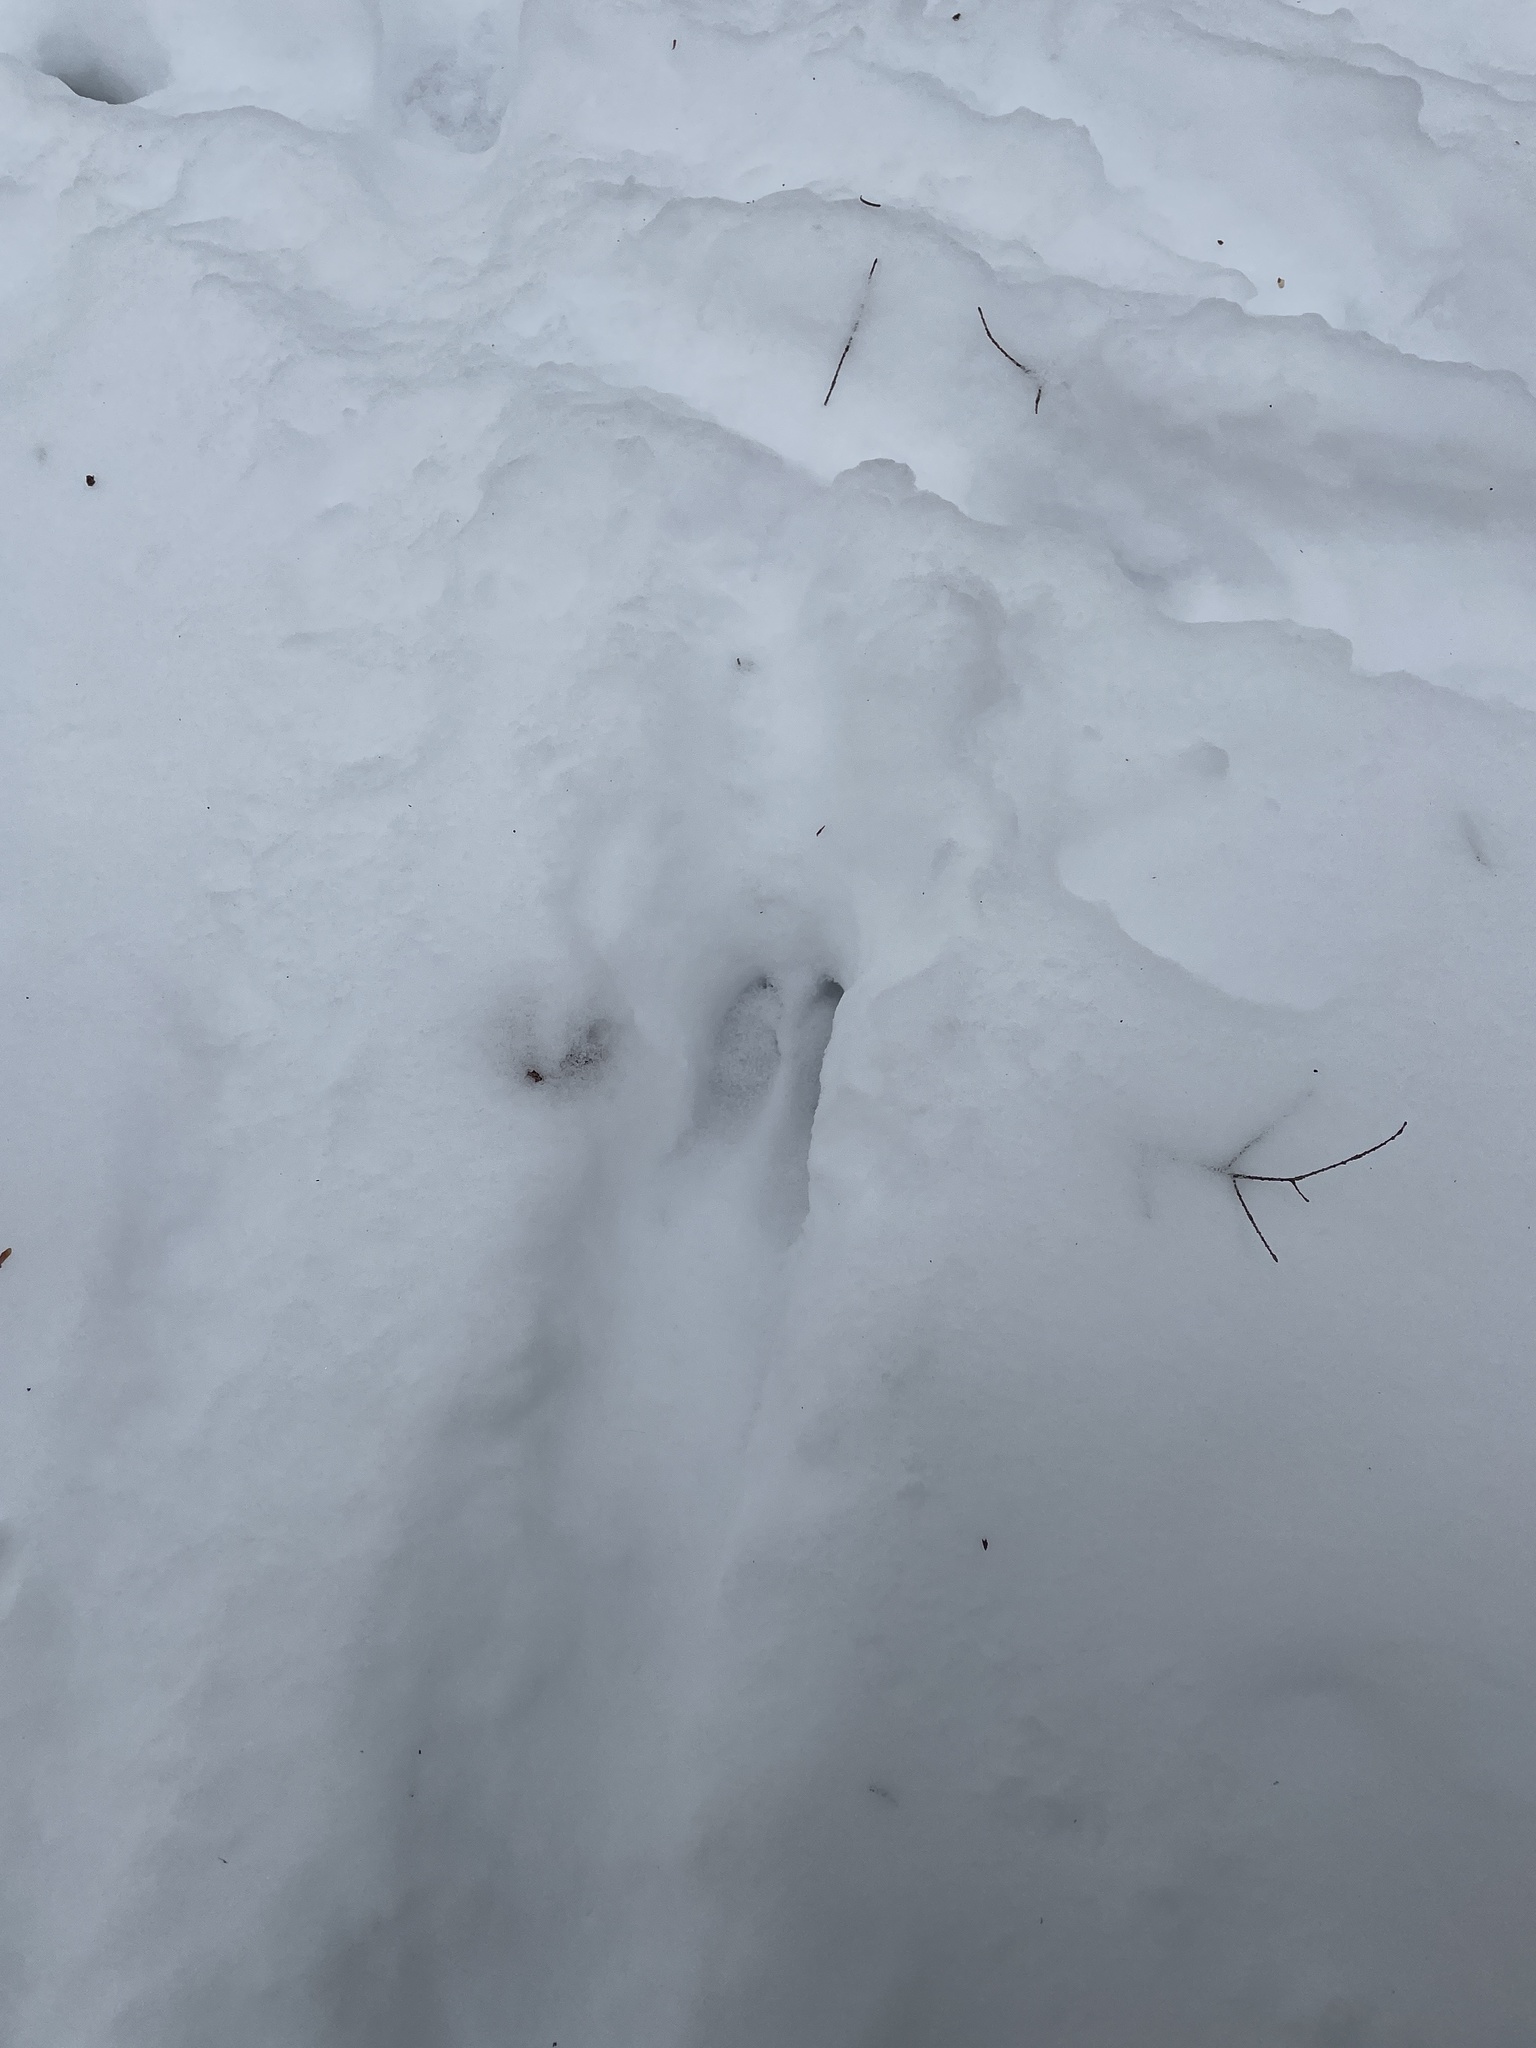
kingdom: Animalia
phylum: Chordata
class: Mammalia
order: Artiodactyla
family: Cervidae
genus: Odocoileus
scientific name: Odocoileus virginianus
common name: White-tailed deer
